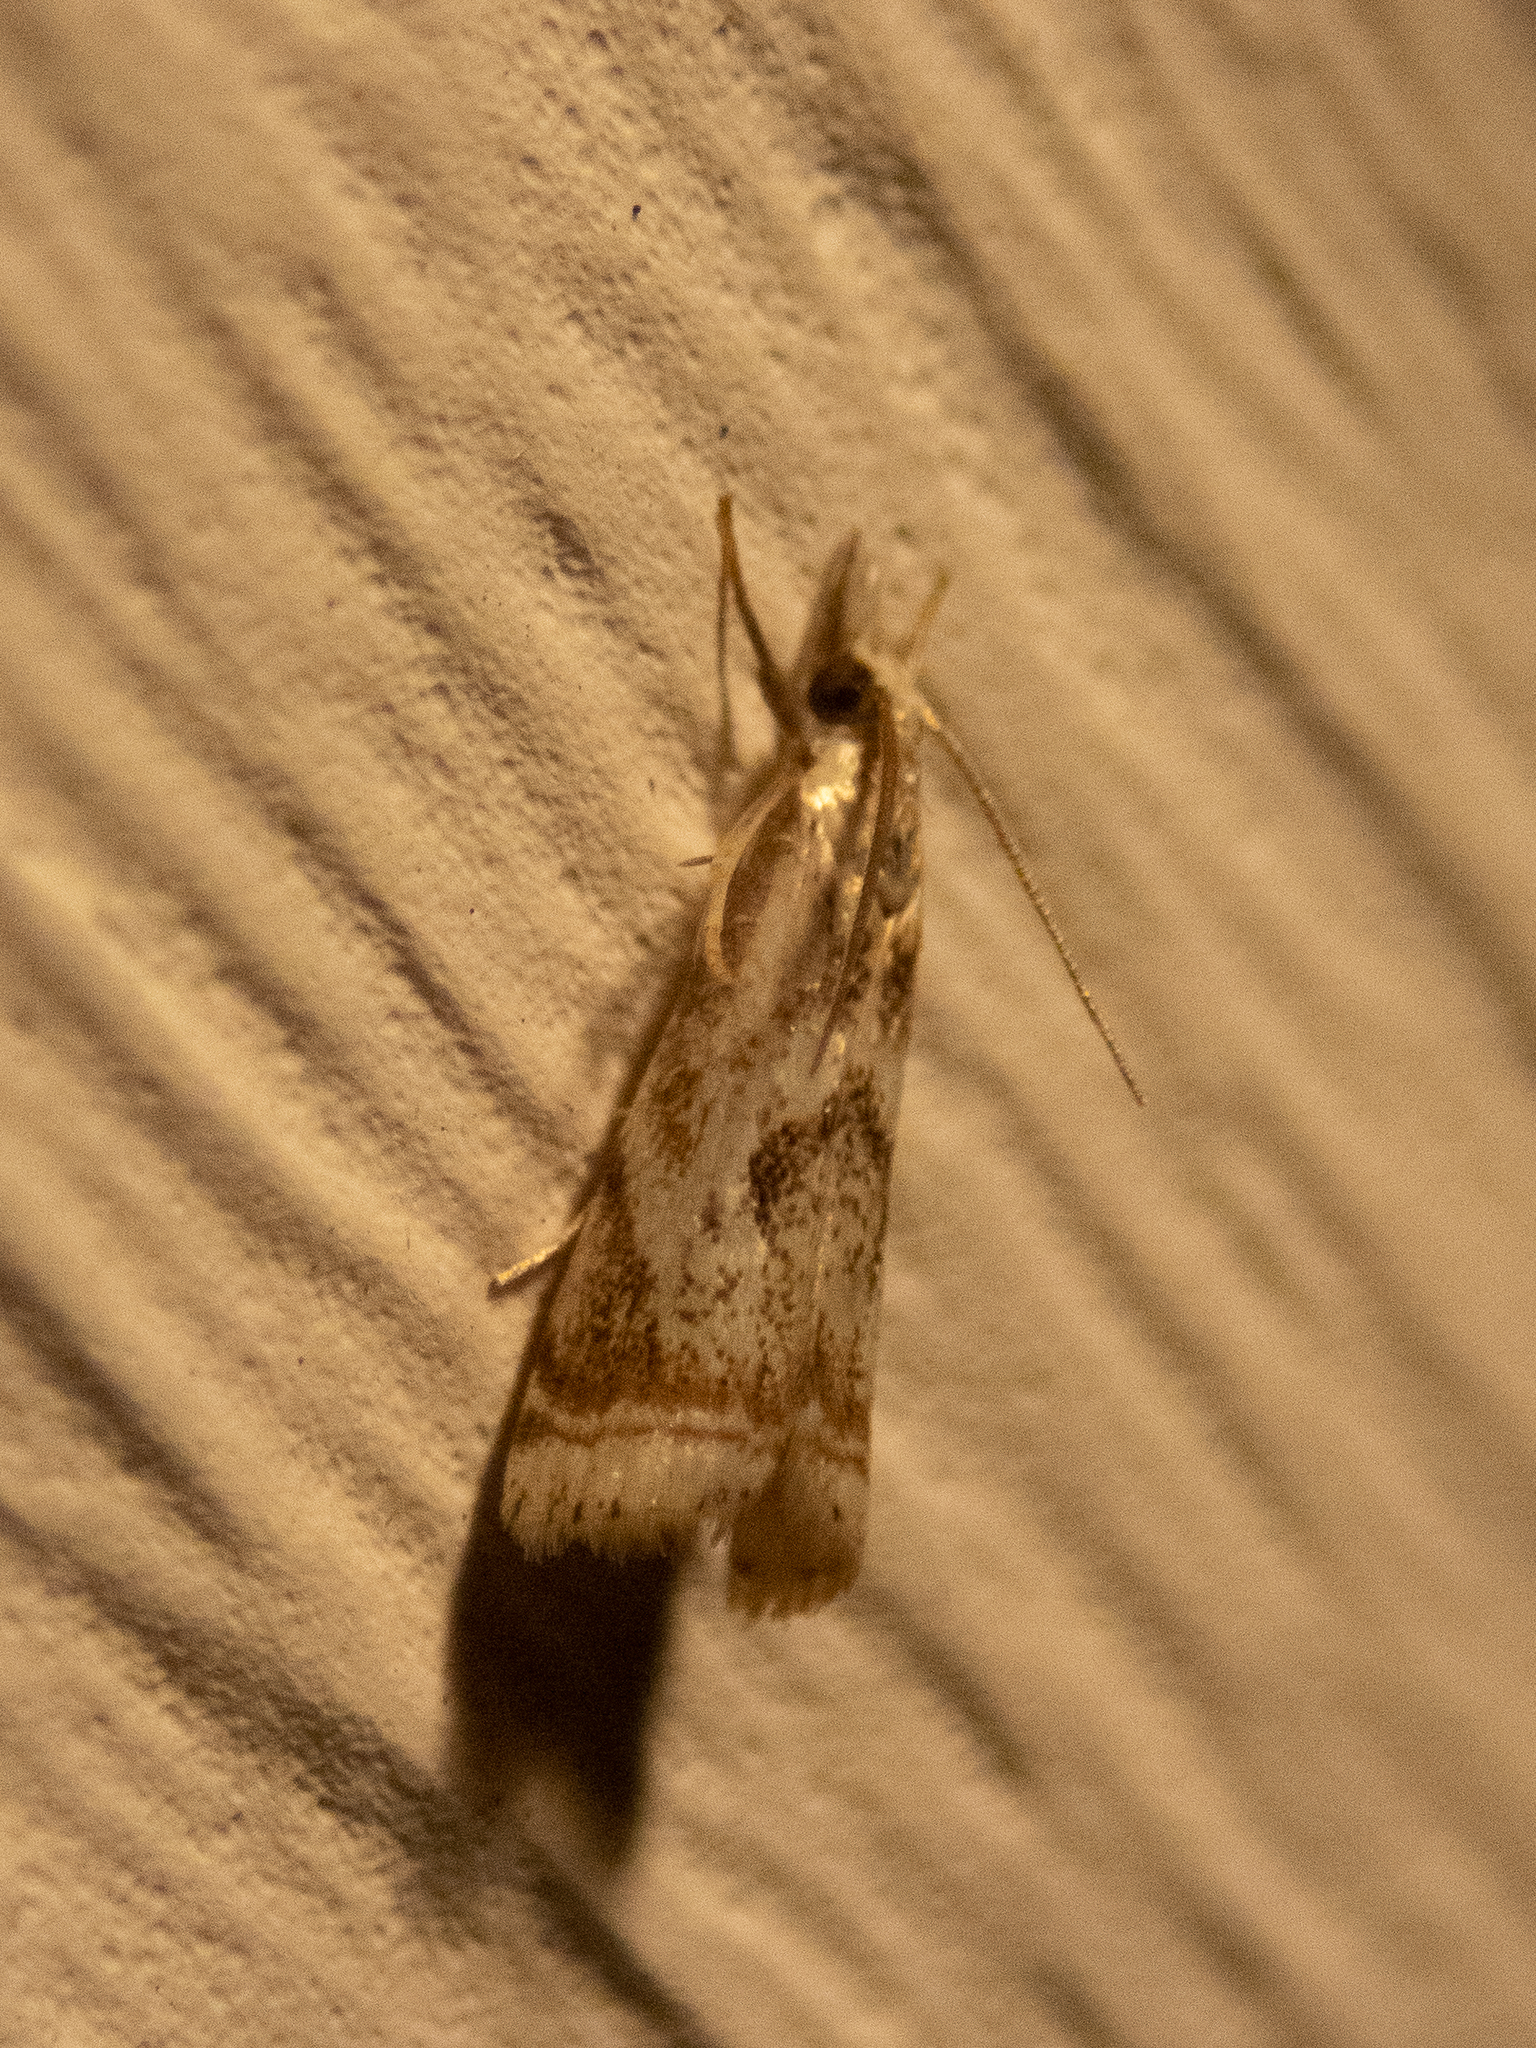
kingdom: Animalia
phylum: Arthropoda
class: Insecta
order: Lepidoptera
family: Crambidae
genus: Microcrambus
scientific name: Microcrambus elegans
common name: Elegant grass-veneer
